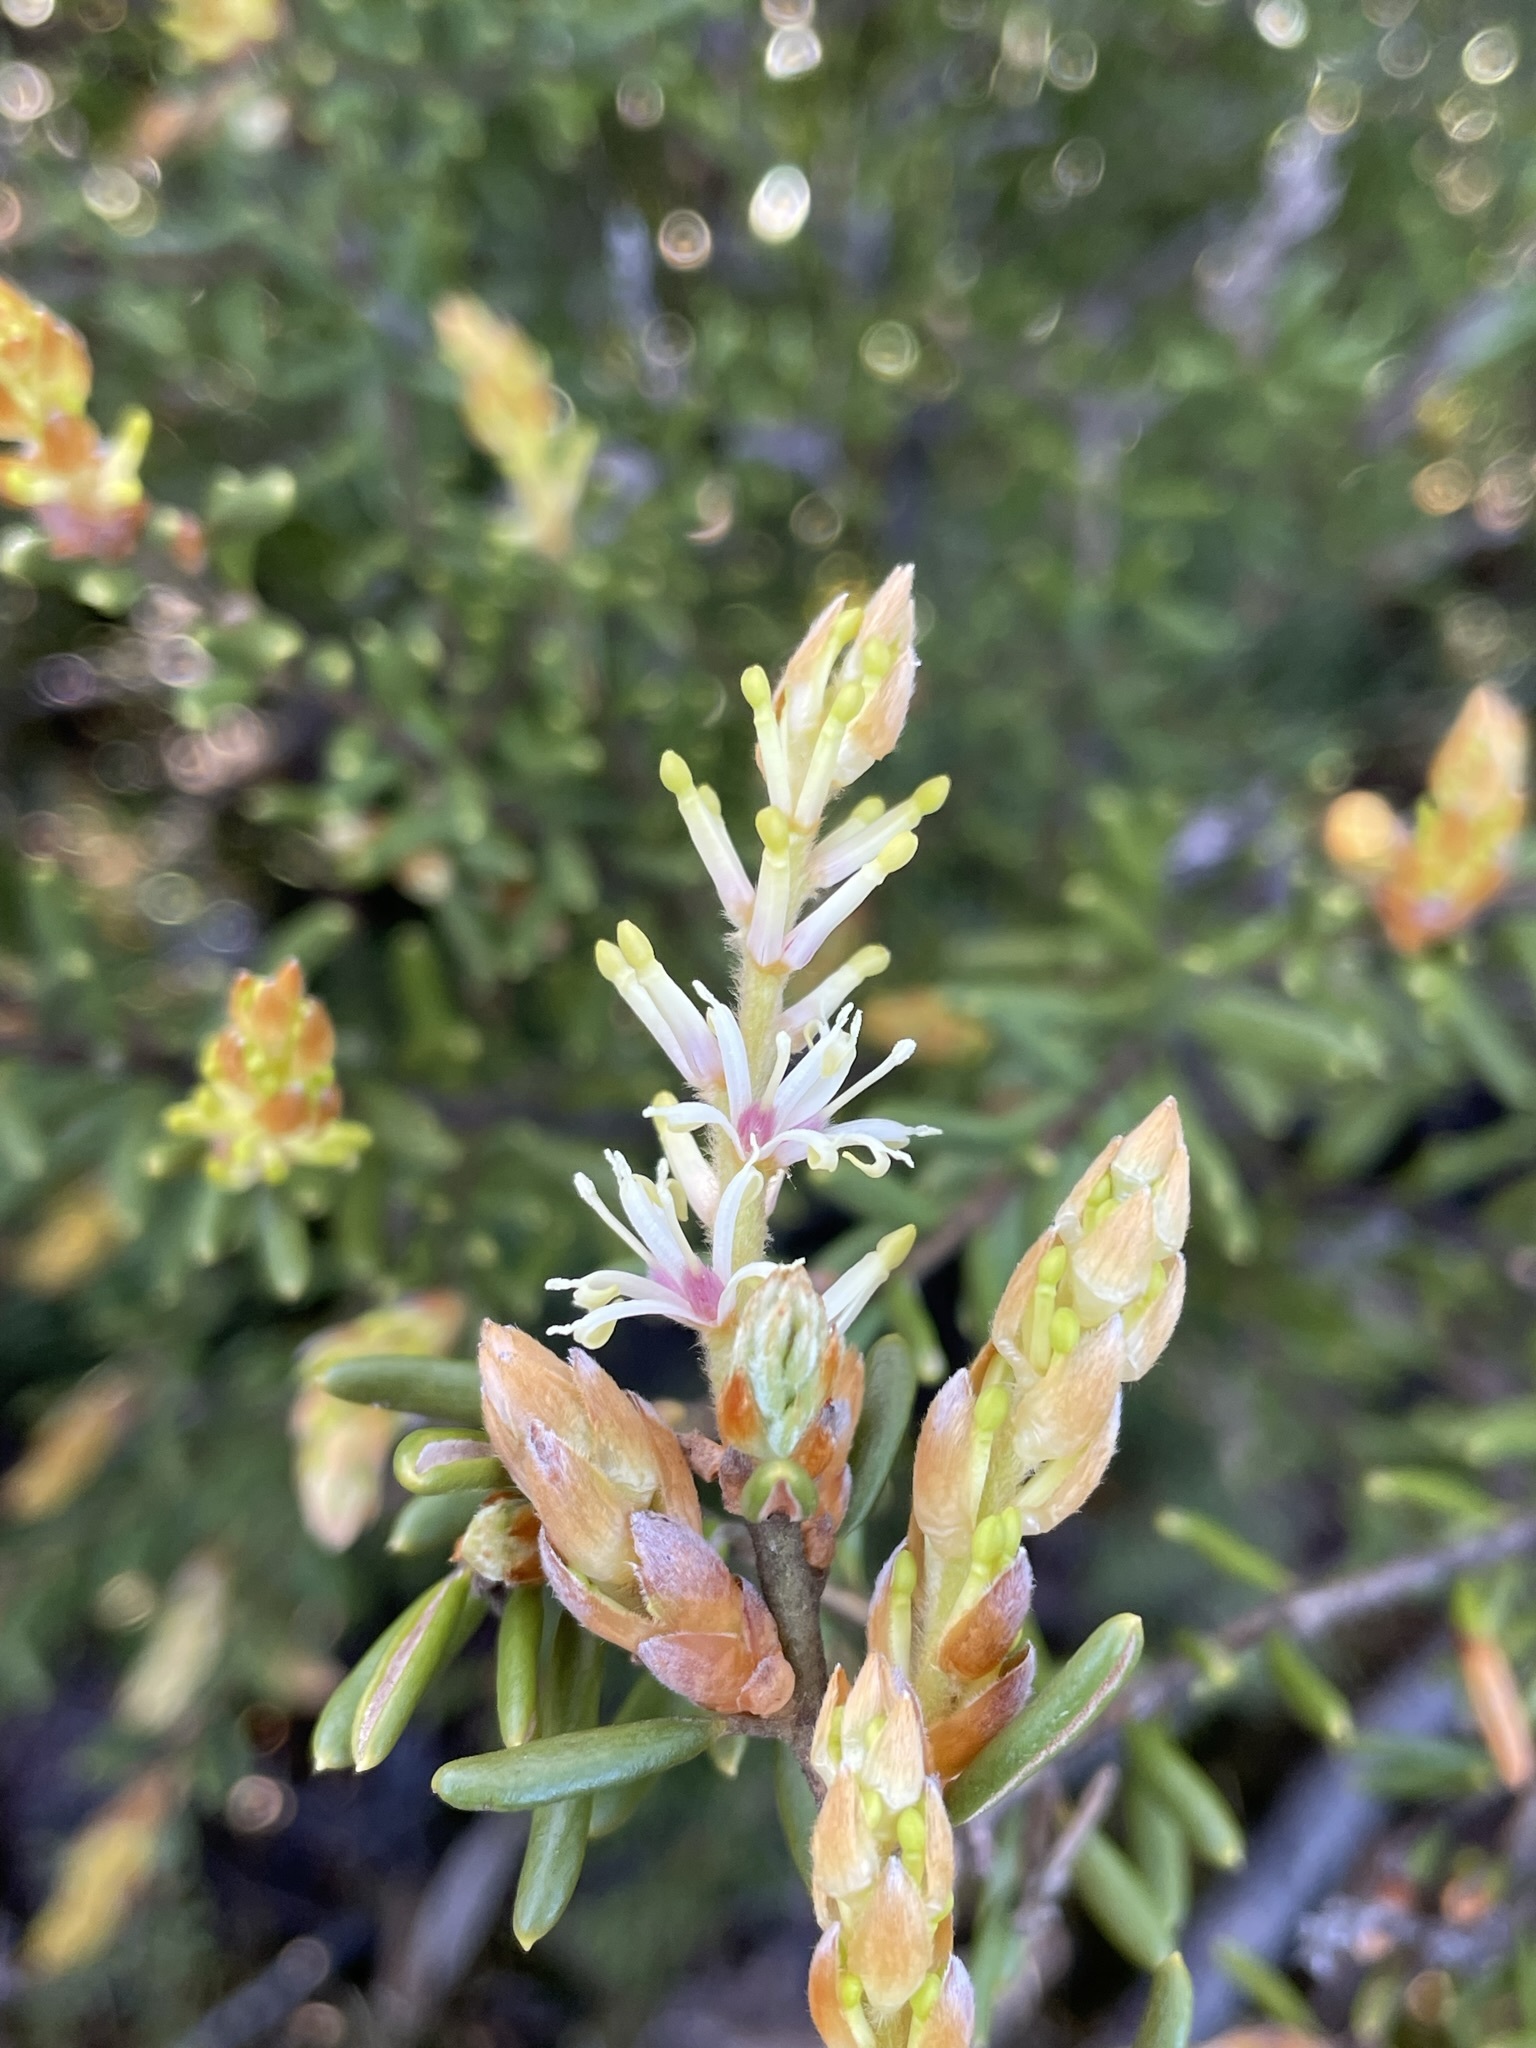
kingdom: Plantae
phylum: Tracheophyta
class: Magnoliopsida
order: Proteales
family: Proteaceae
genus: Orites
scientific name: Orites revolutus
